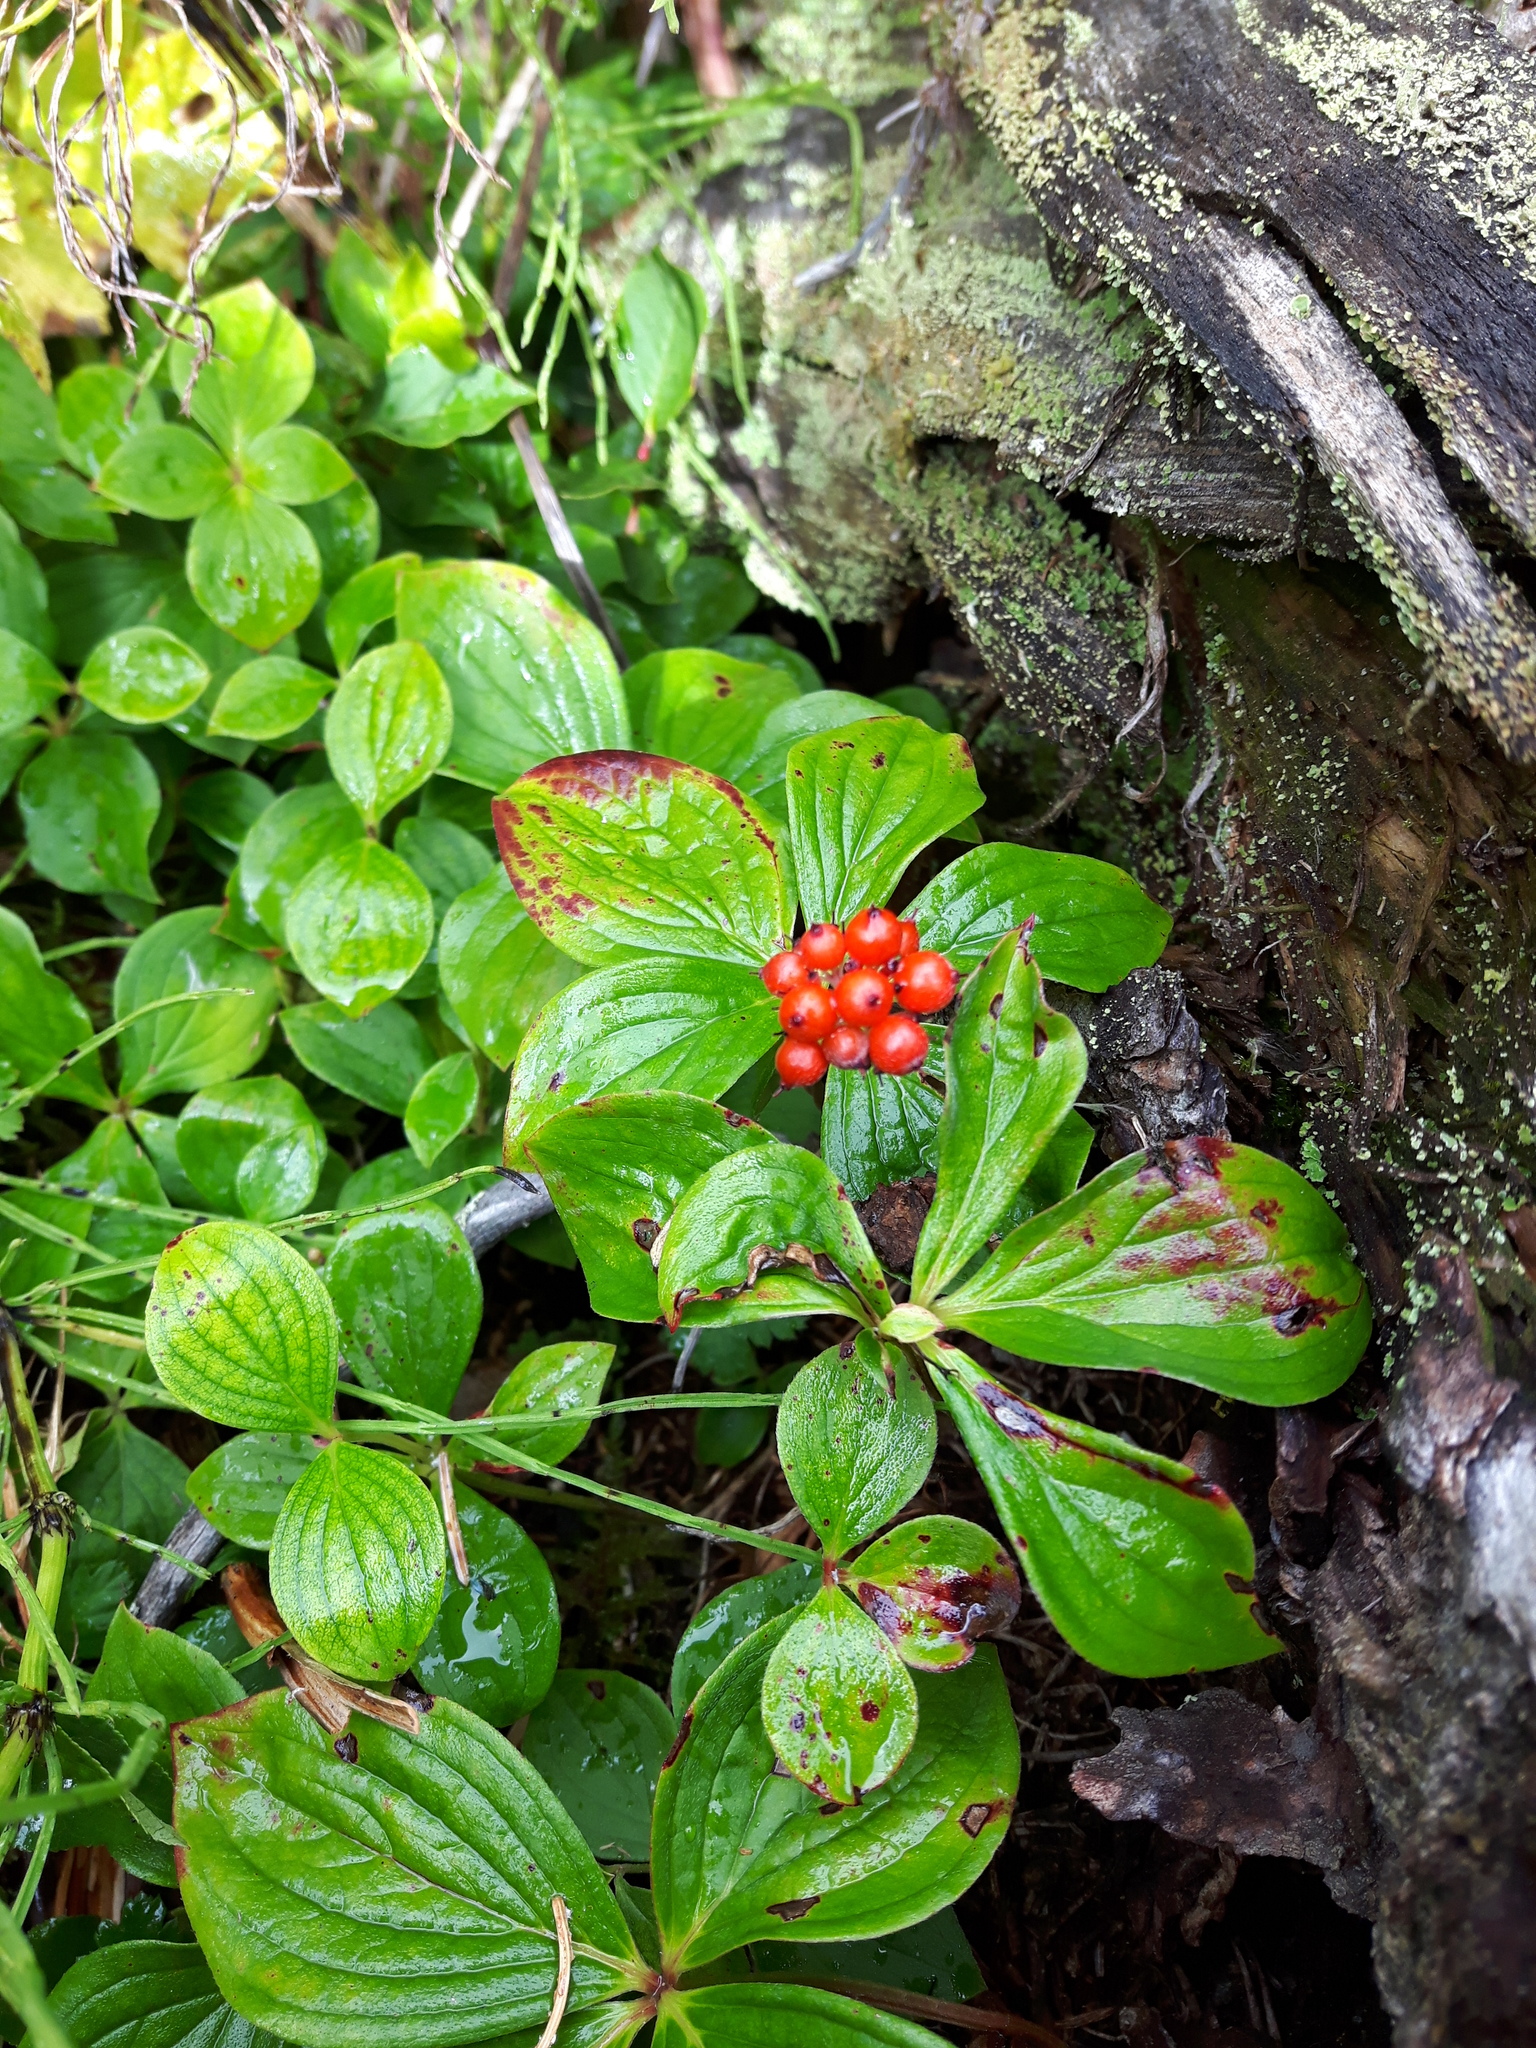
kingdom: Plantae
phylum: Tracheophyta
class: Magnoliopsida
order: Cornales
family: Cornaceae
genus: Cornus
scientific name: Cornus canadensis
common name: Creeping dogwood
